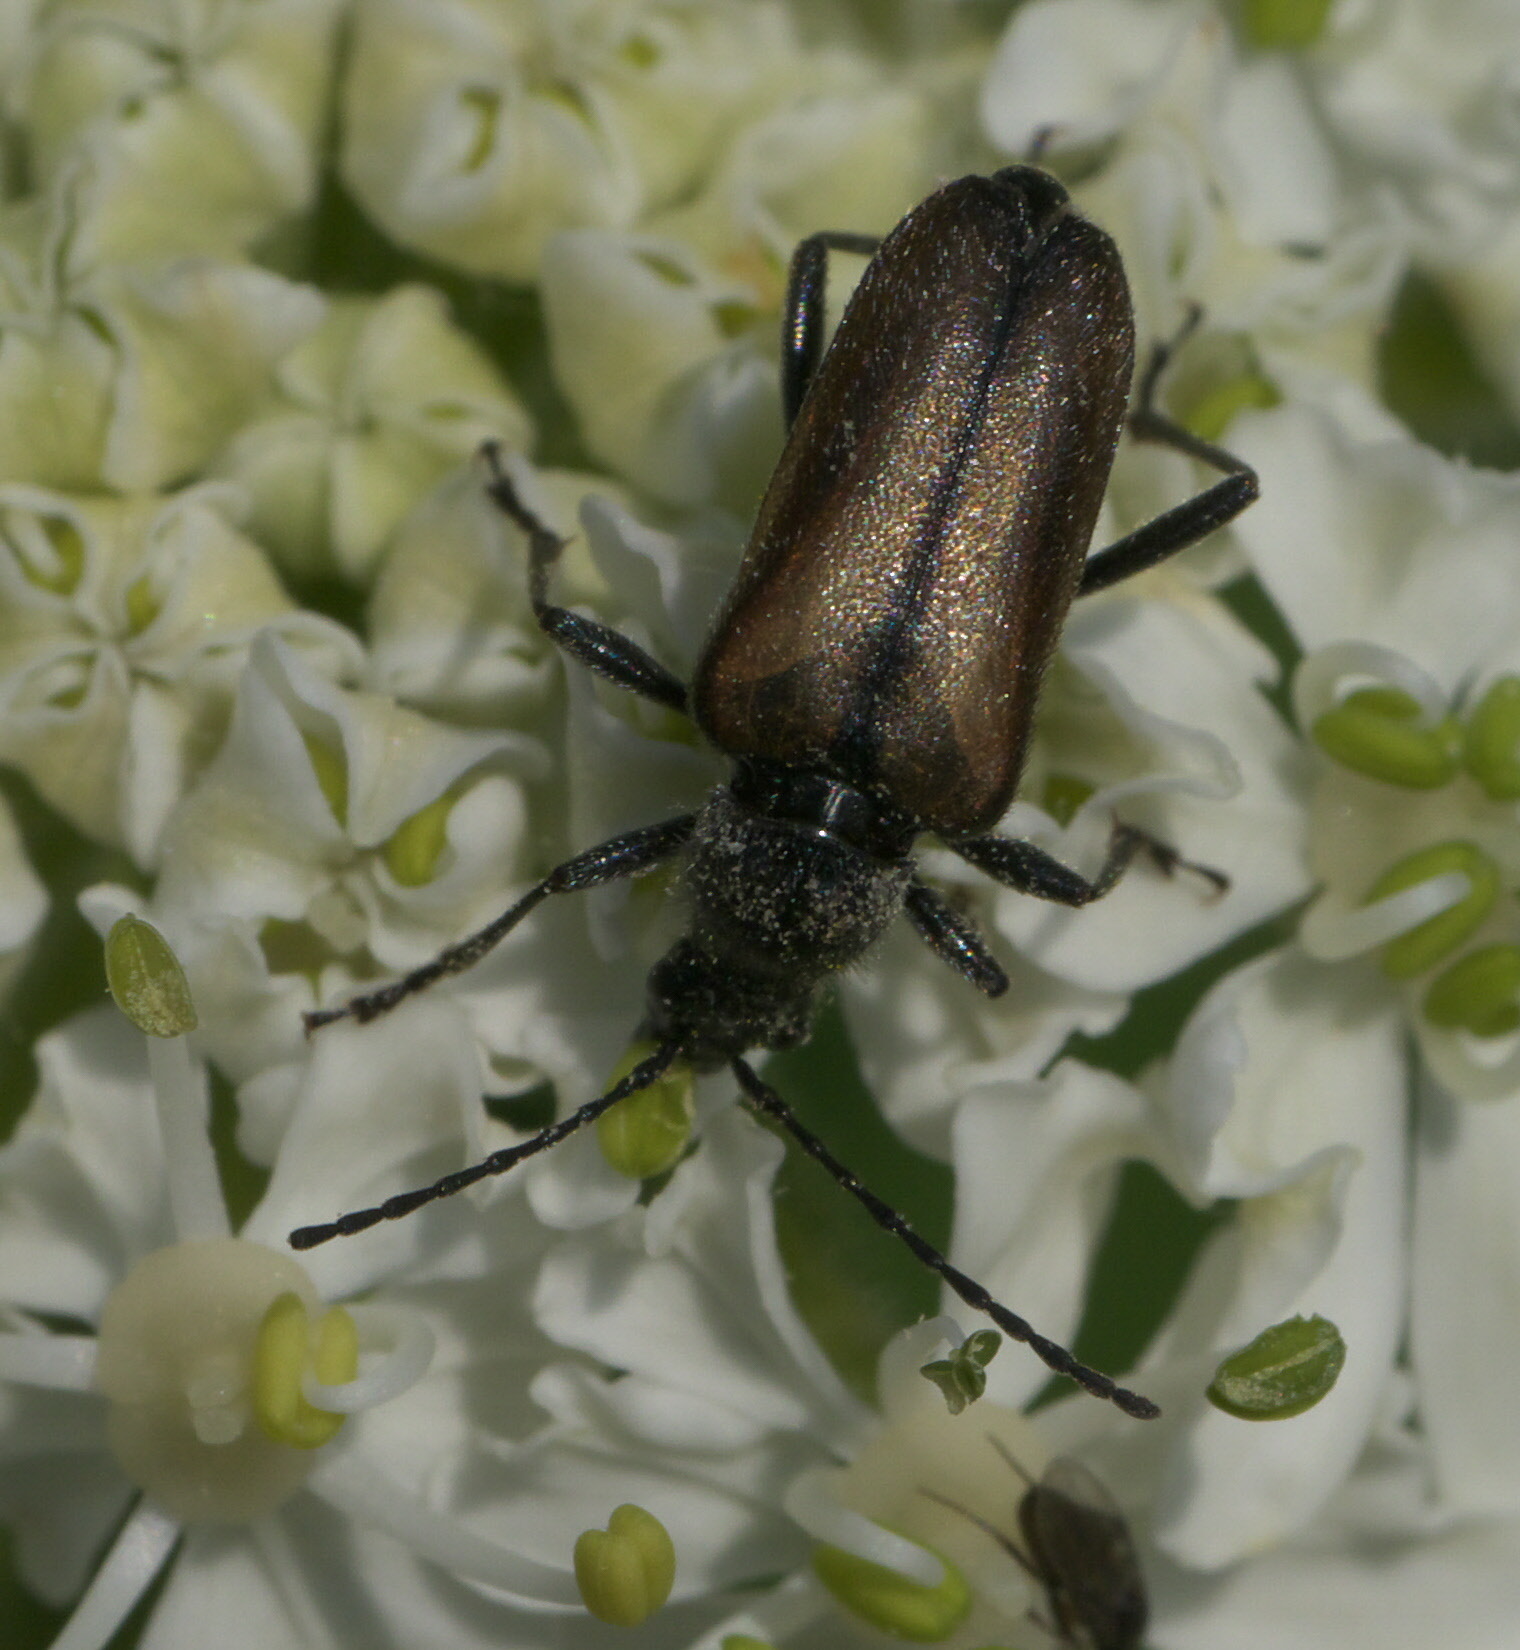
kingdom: Animalia
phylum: Arthropoda
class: Insecta
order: Coleoptera
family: Cerambycidae
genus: Gnathacmaeops
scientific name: Gnathacmaeops pratensis
